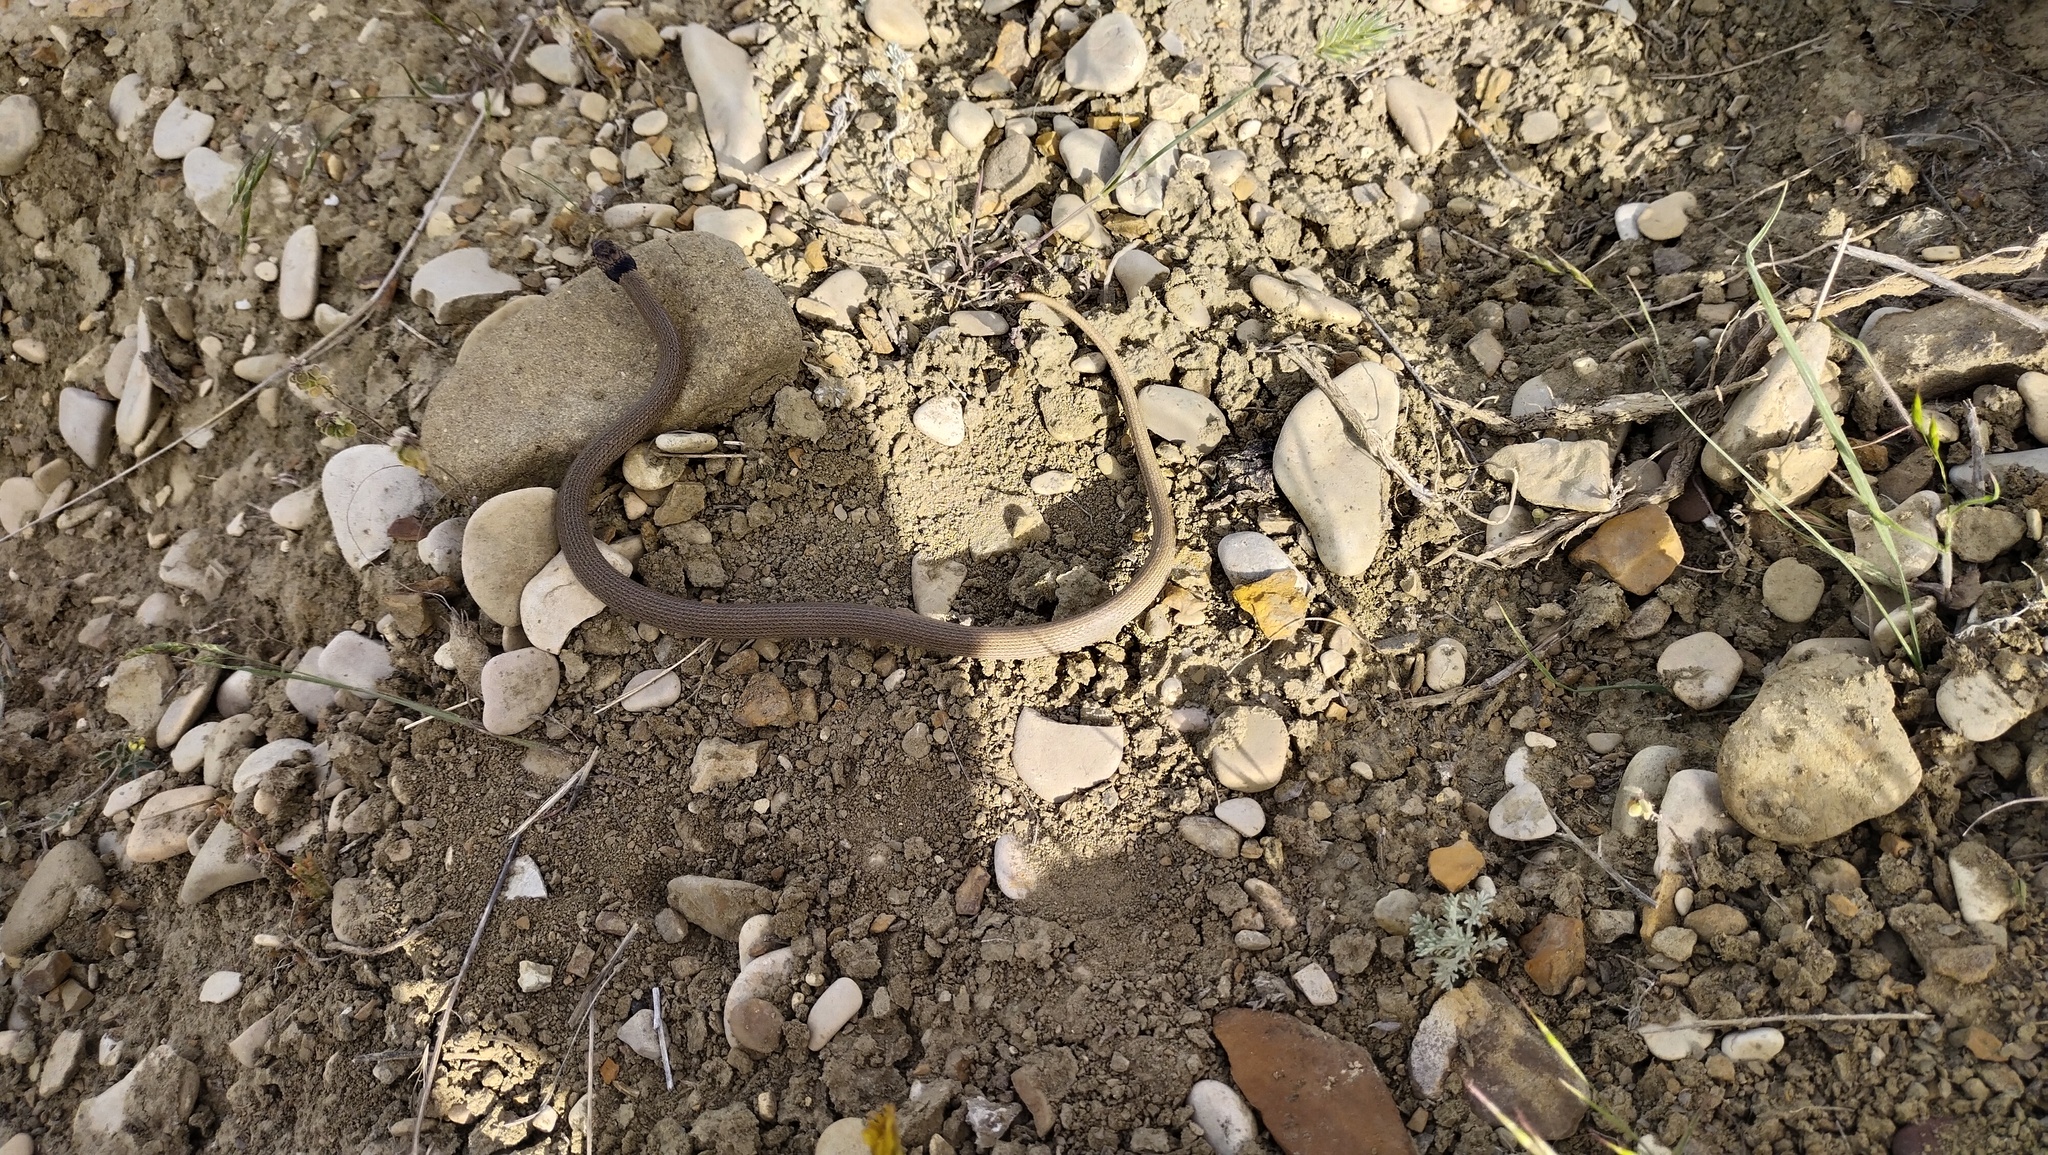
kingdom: Animalia
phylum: Chordata
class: Squamata
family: Colubridae
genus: Eirenis
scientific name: Eirenis collaris
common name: Collared dwarf racer
